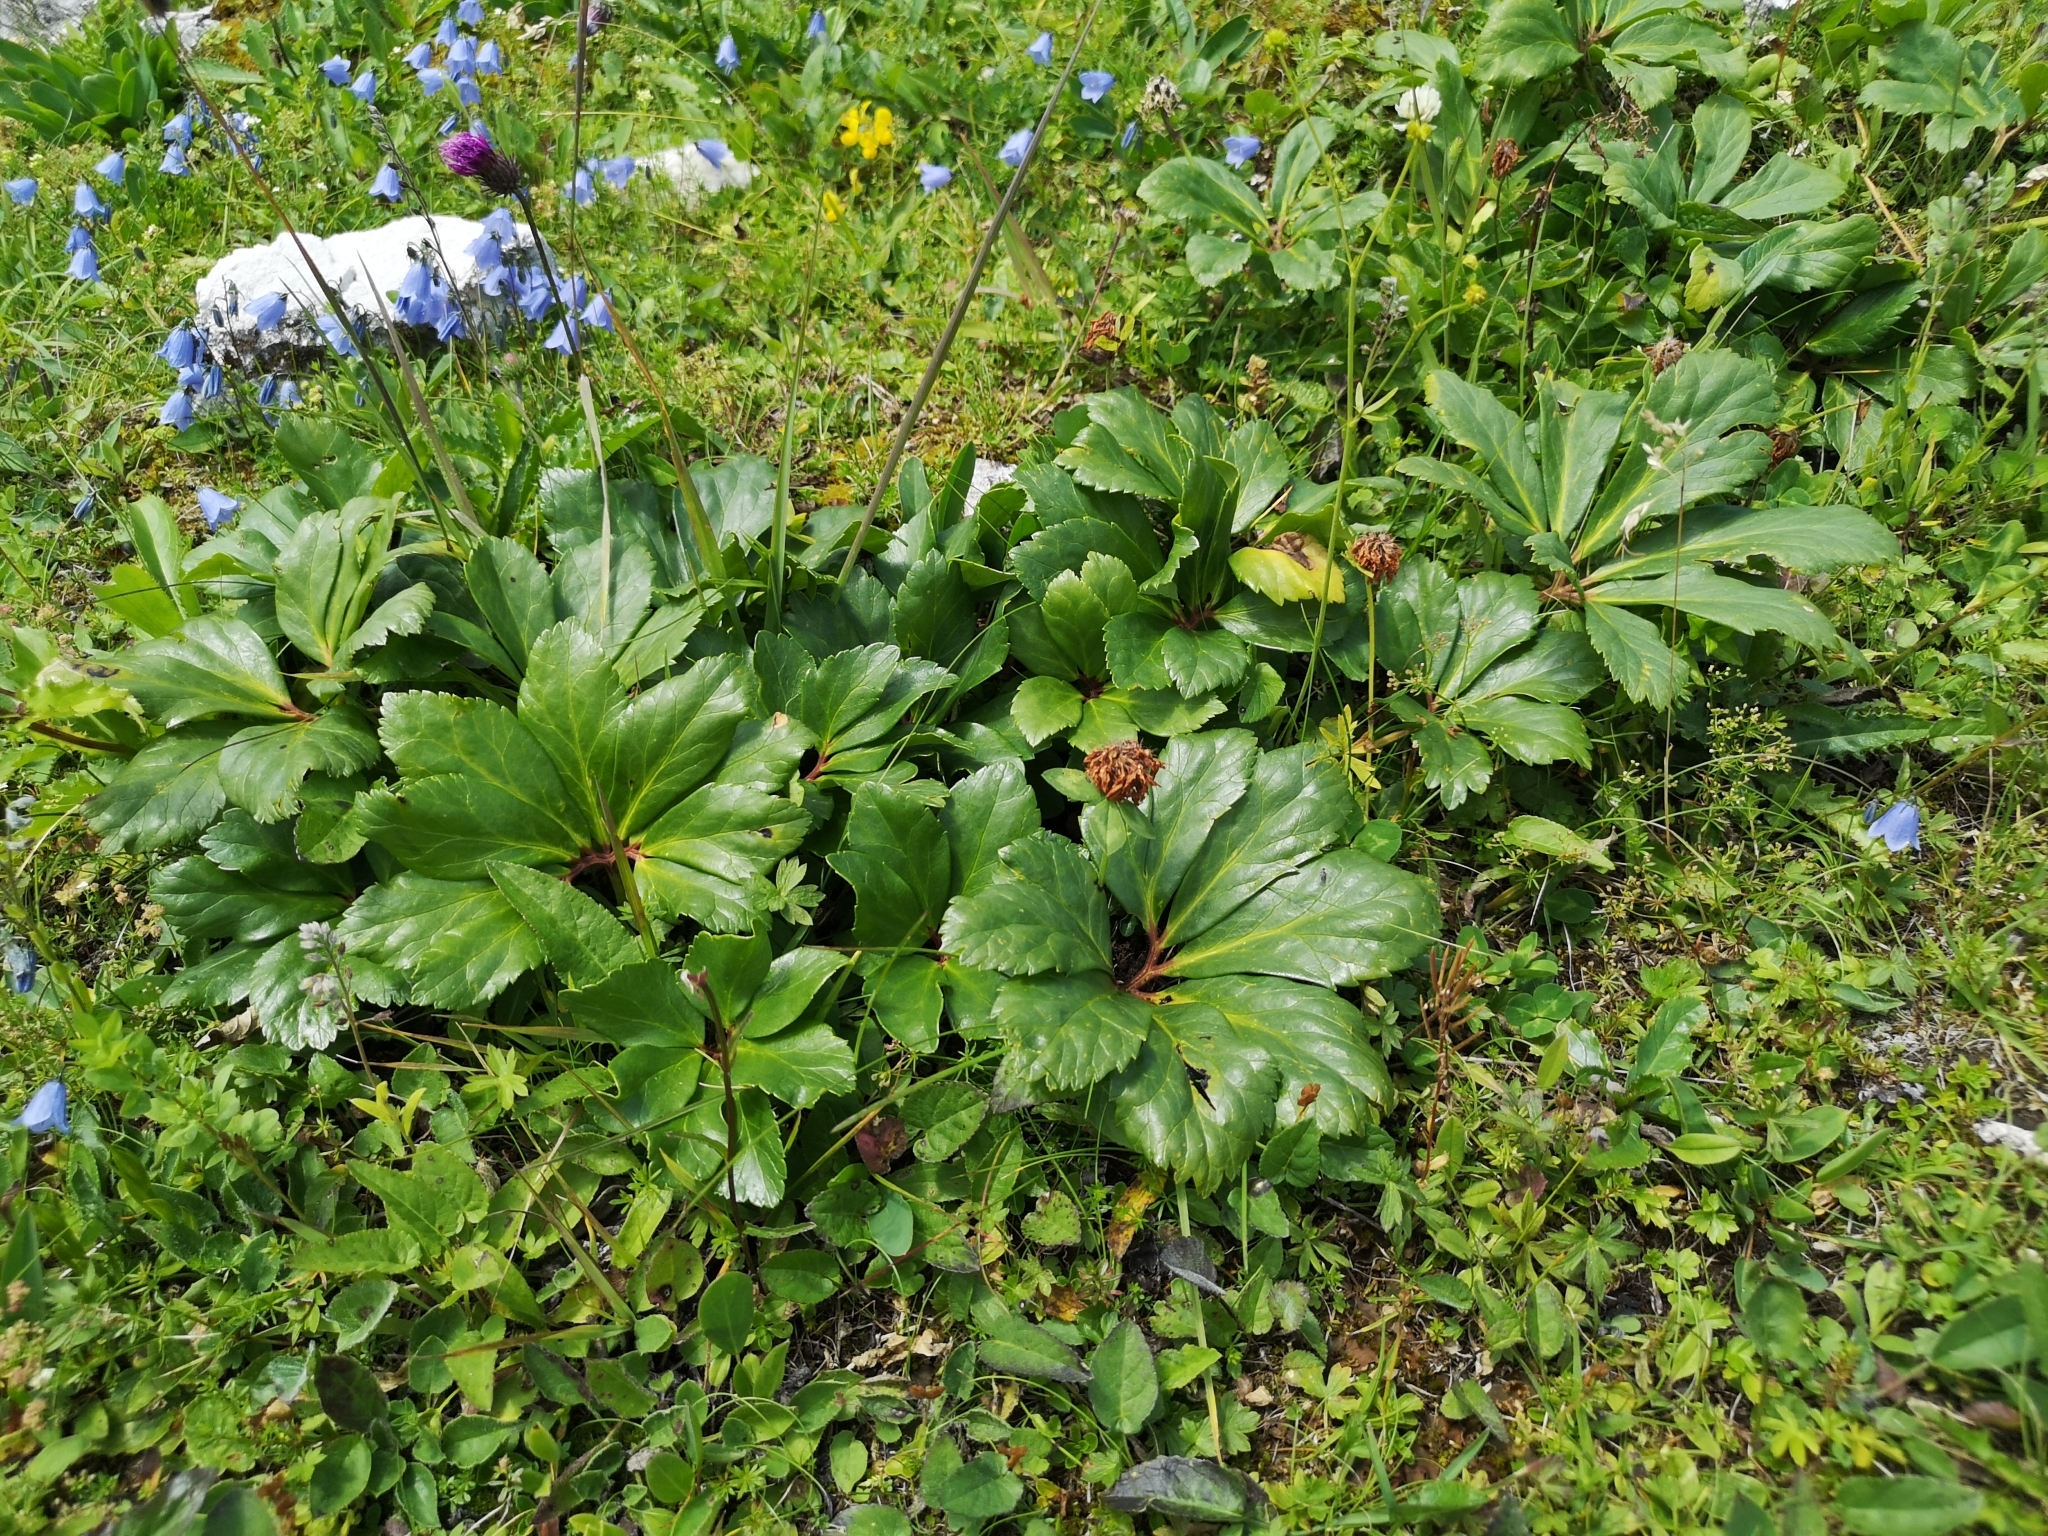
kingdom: Plantae
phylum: Tracheophyta
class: Magnoliopsida
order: Ranunculales
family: Ranunculaceae
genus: Helleborus
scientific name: Helleborus niger
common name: Black hellebore
